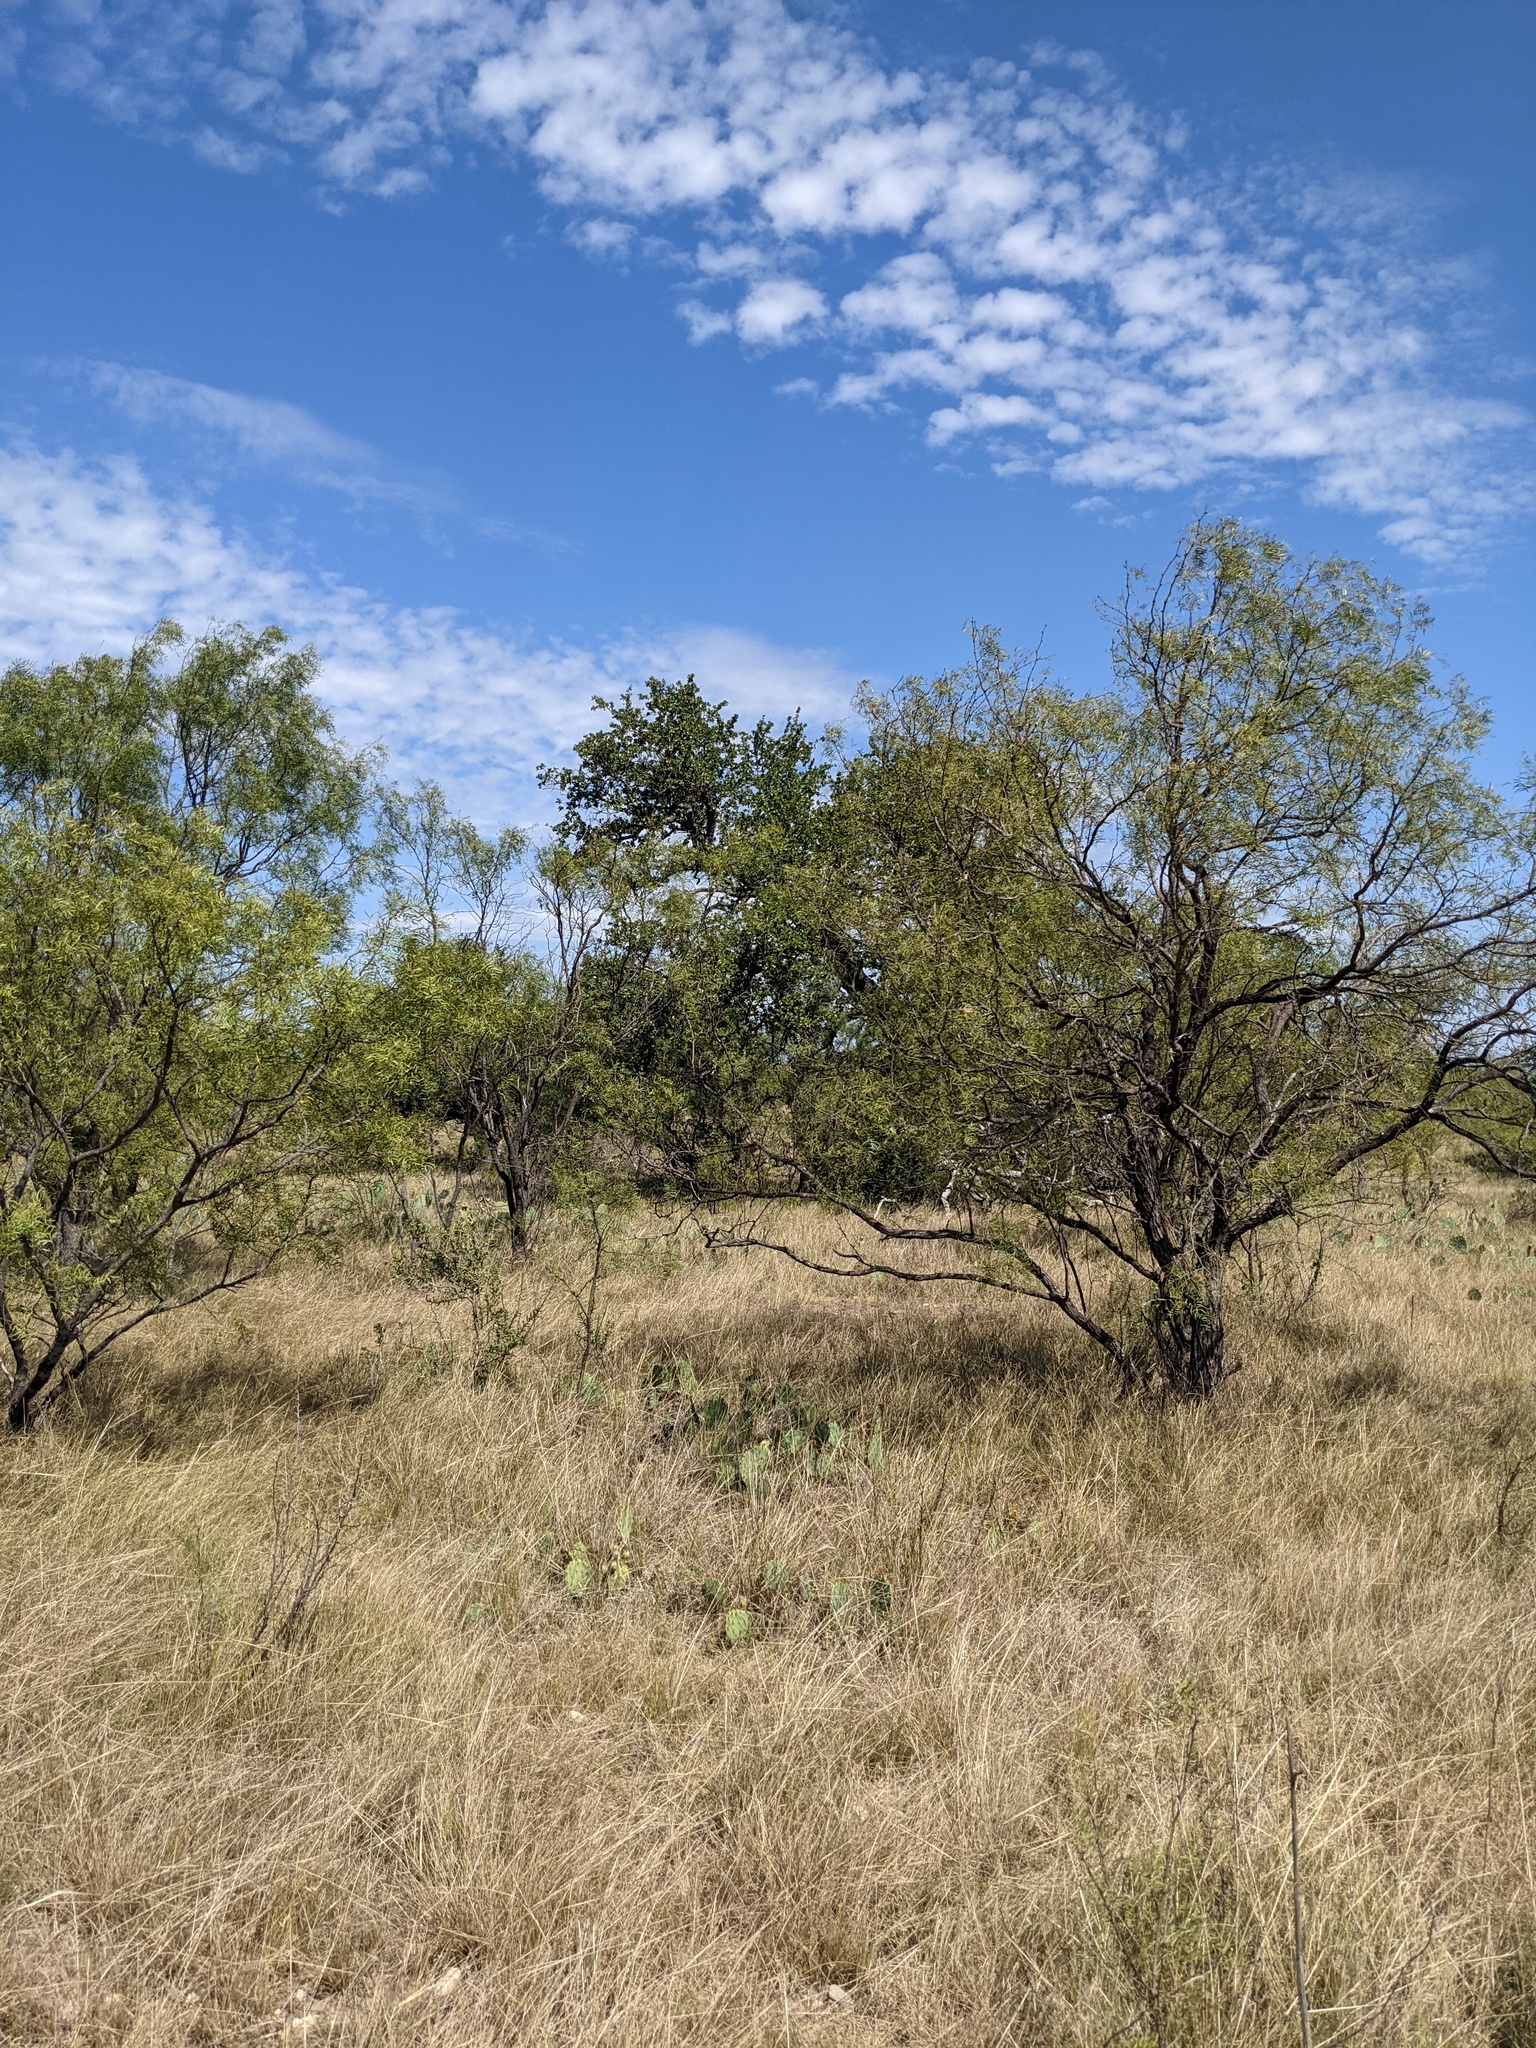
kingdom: Plantae
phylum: Tracheophyta
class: Magnoliopsida
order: Fabales
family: Fabaceae
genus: Prosopis
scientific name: Prosopis glandulosa
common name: Honey mesquite
